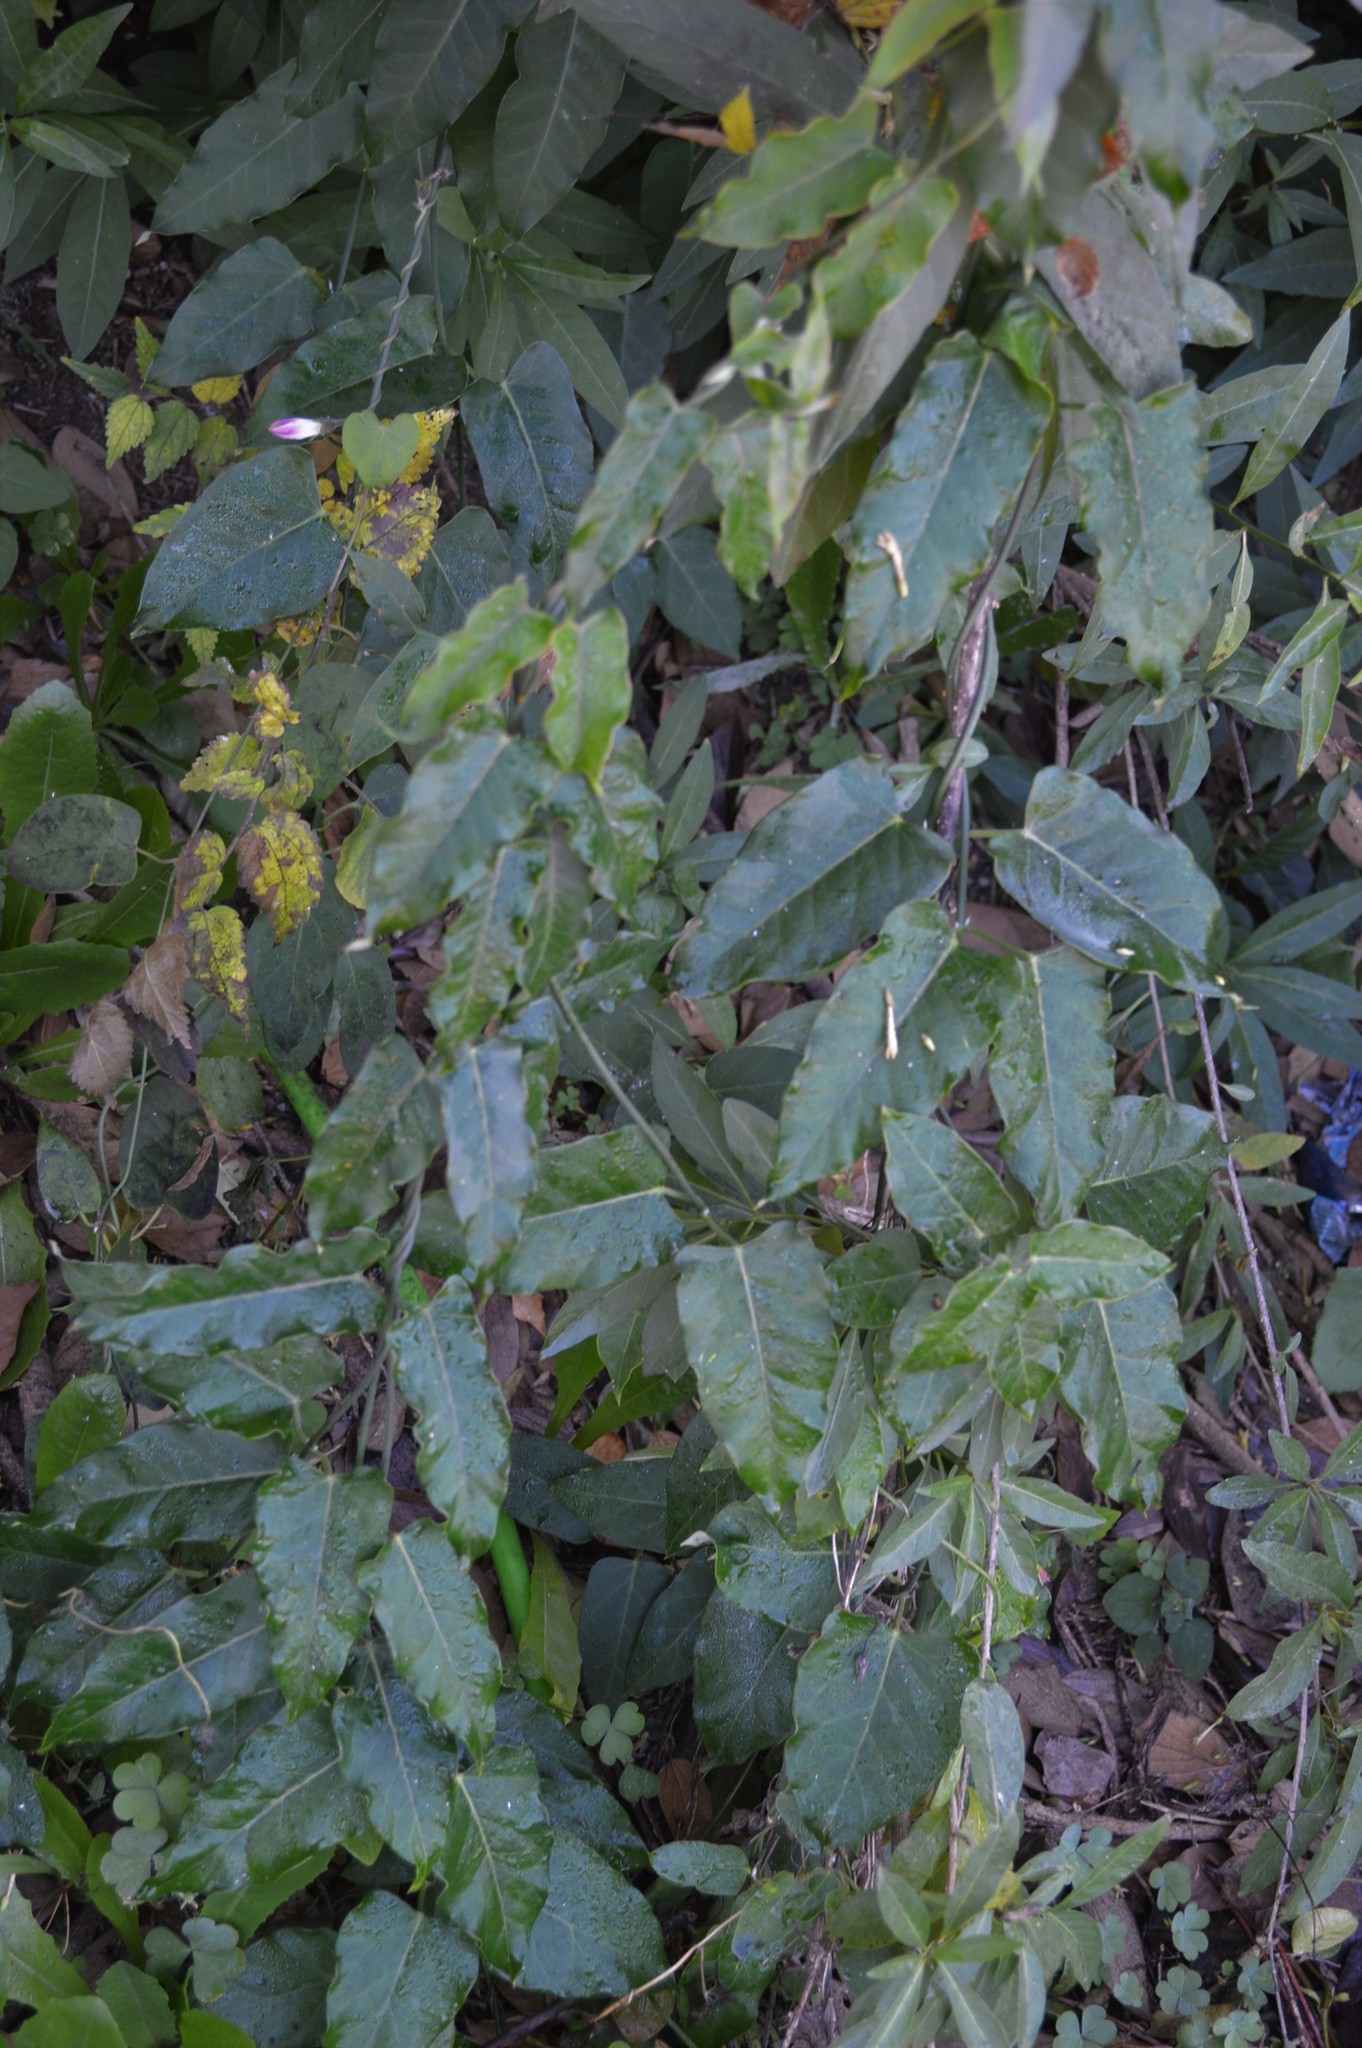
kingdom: Plantae
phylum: Tracheophyta
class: Magnoliopsida
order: Gentianales
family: Apocynaceae
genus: Araujia
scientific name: Araujia sericifera
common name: White bladderflower
